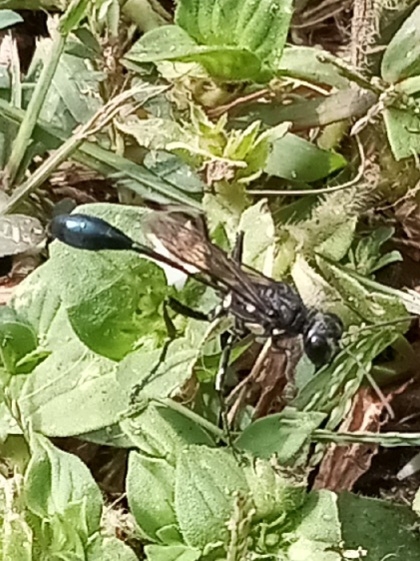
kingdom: Animalia
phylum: Arthropoda
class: Insecta
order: Hymenoptera
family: Sphecidae
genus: Eremnophila
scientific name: Eremnophila aureonotata
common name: Gold-marked thread-waisted wasp
